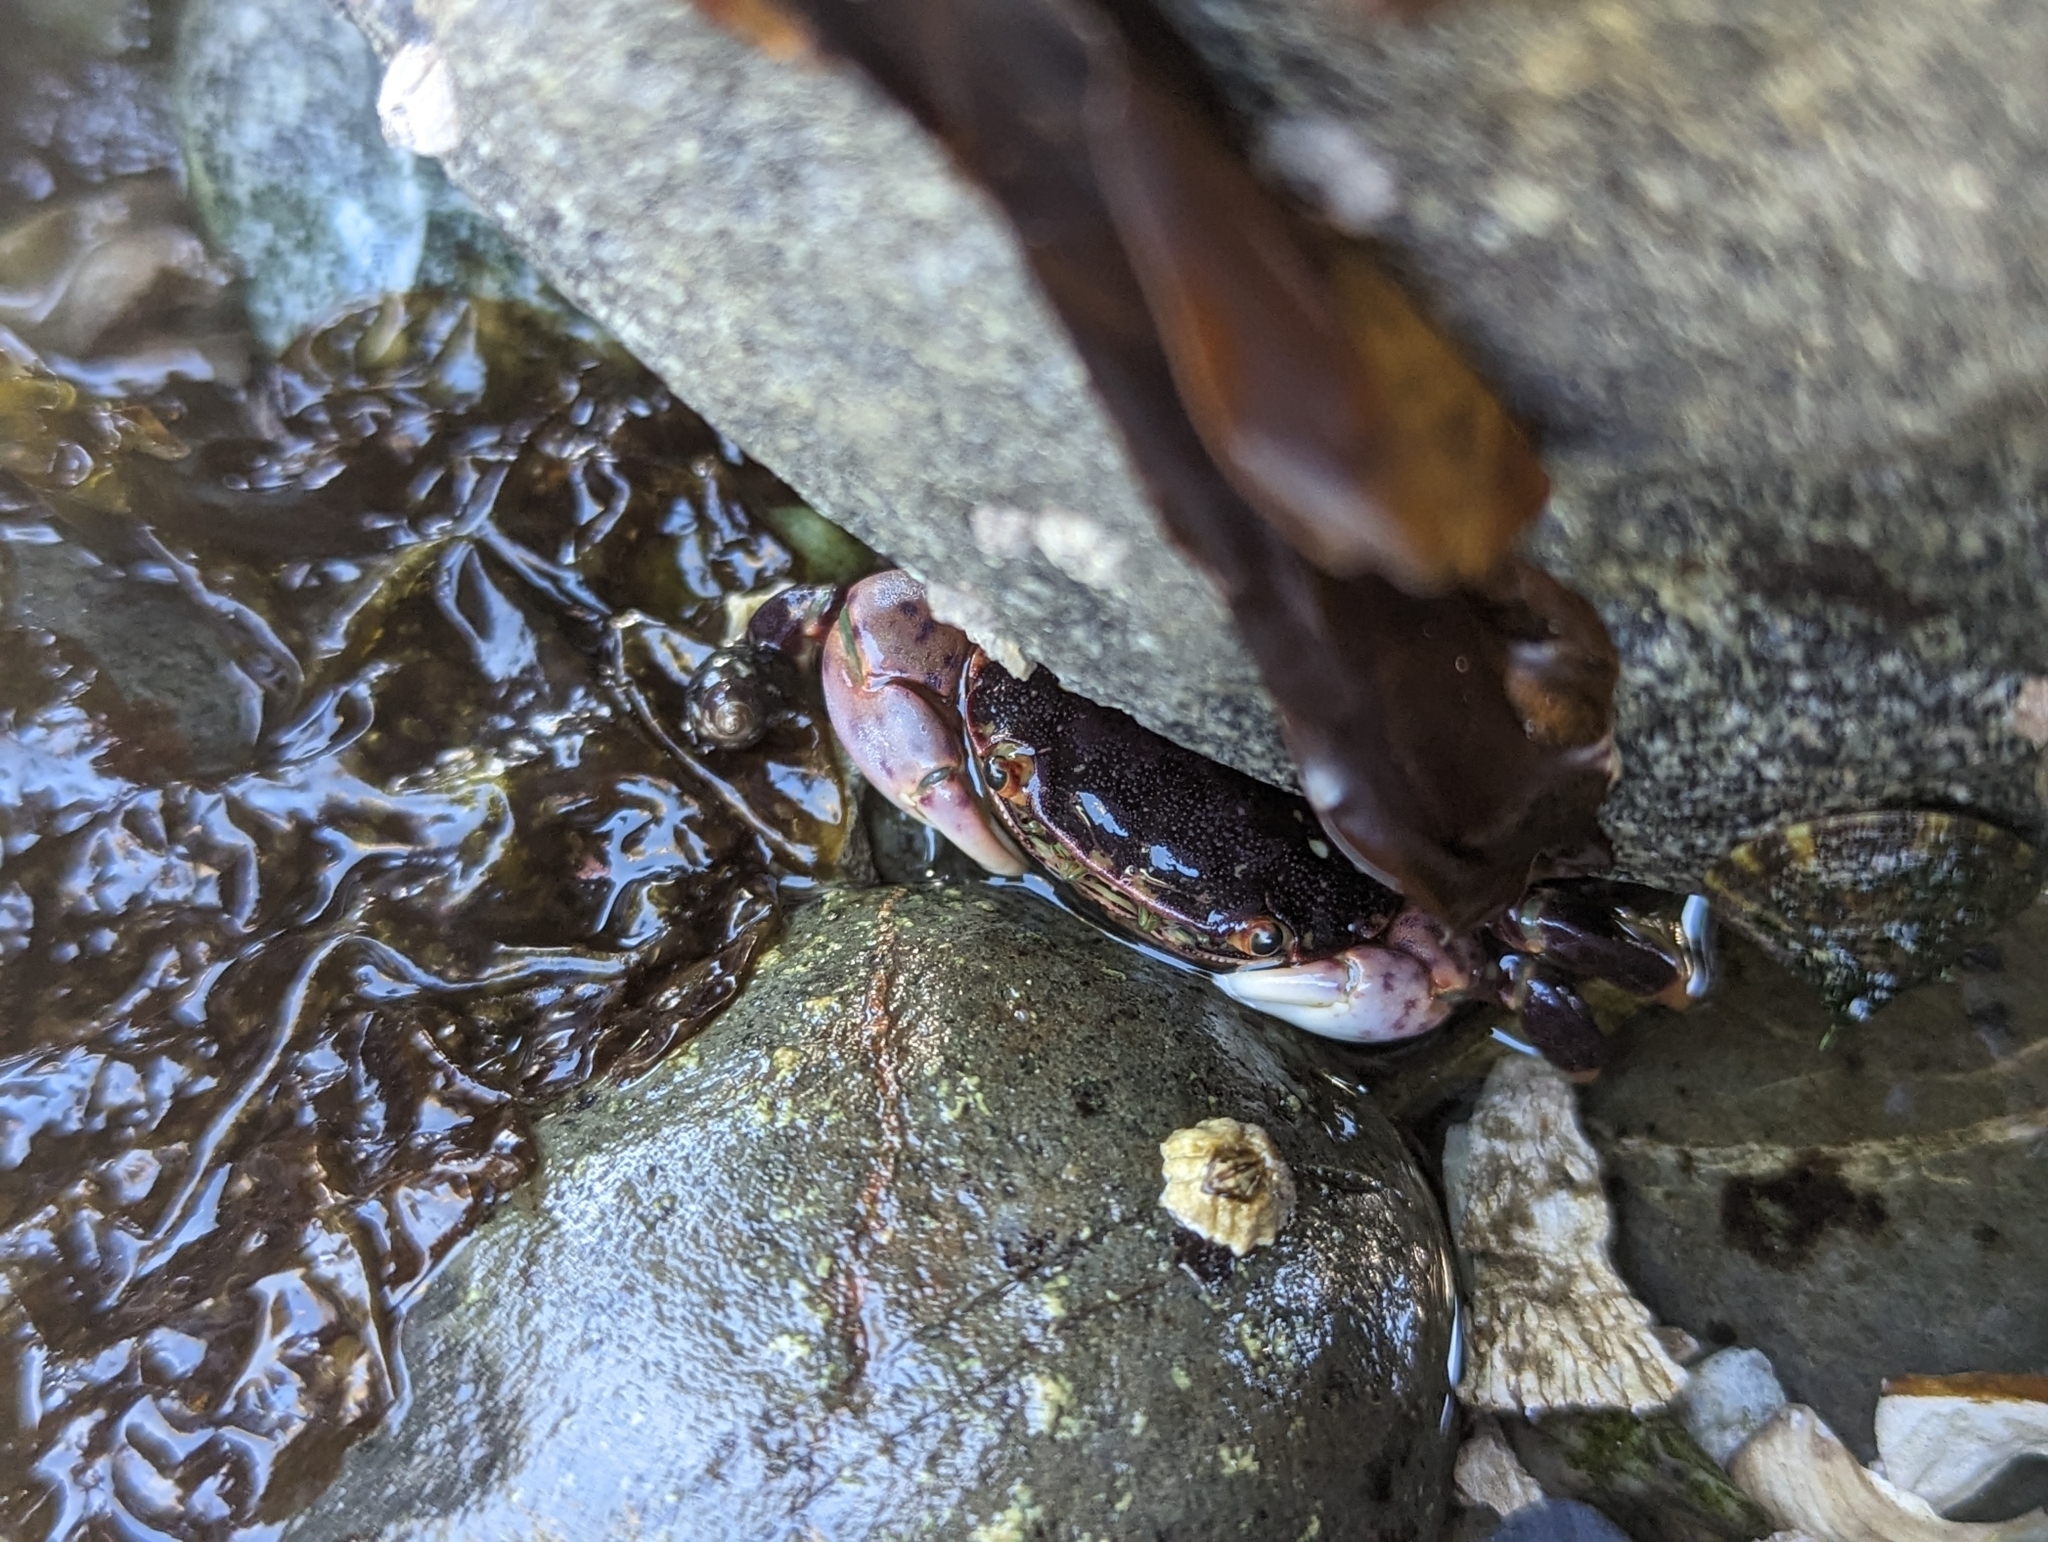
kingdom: Animalia
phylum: Arthropoda
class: Malacostraca
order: Decapoda
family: Varunidae
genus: Hemigrapsus
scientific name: Hemigrapsus nudus
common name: Purple shore crab
